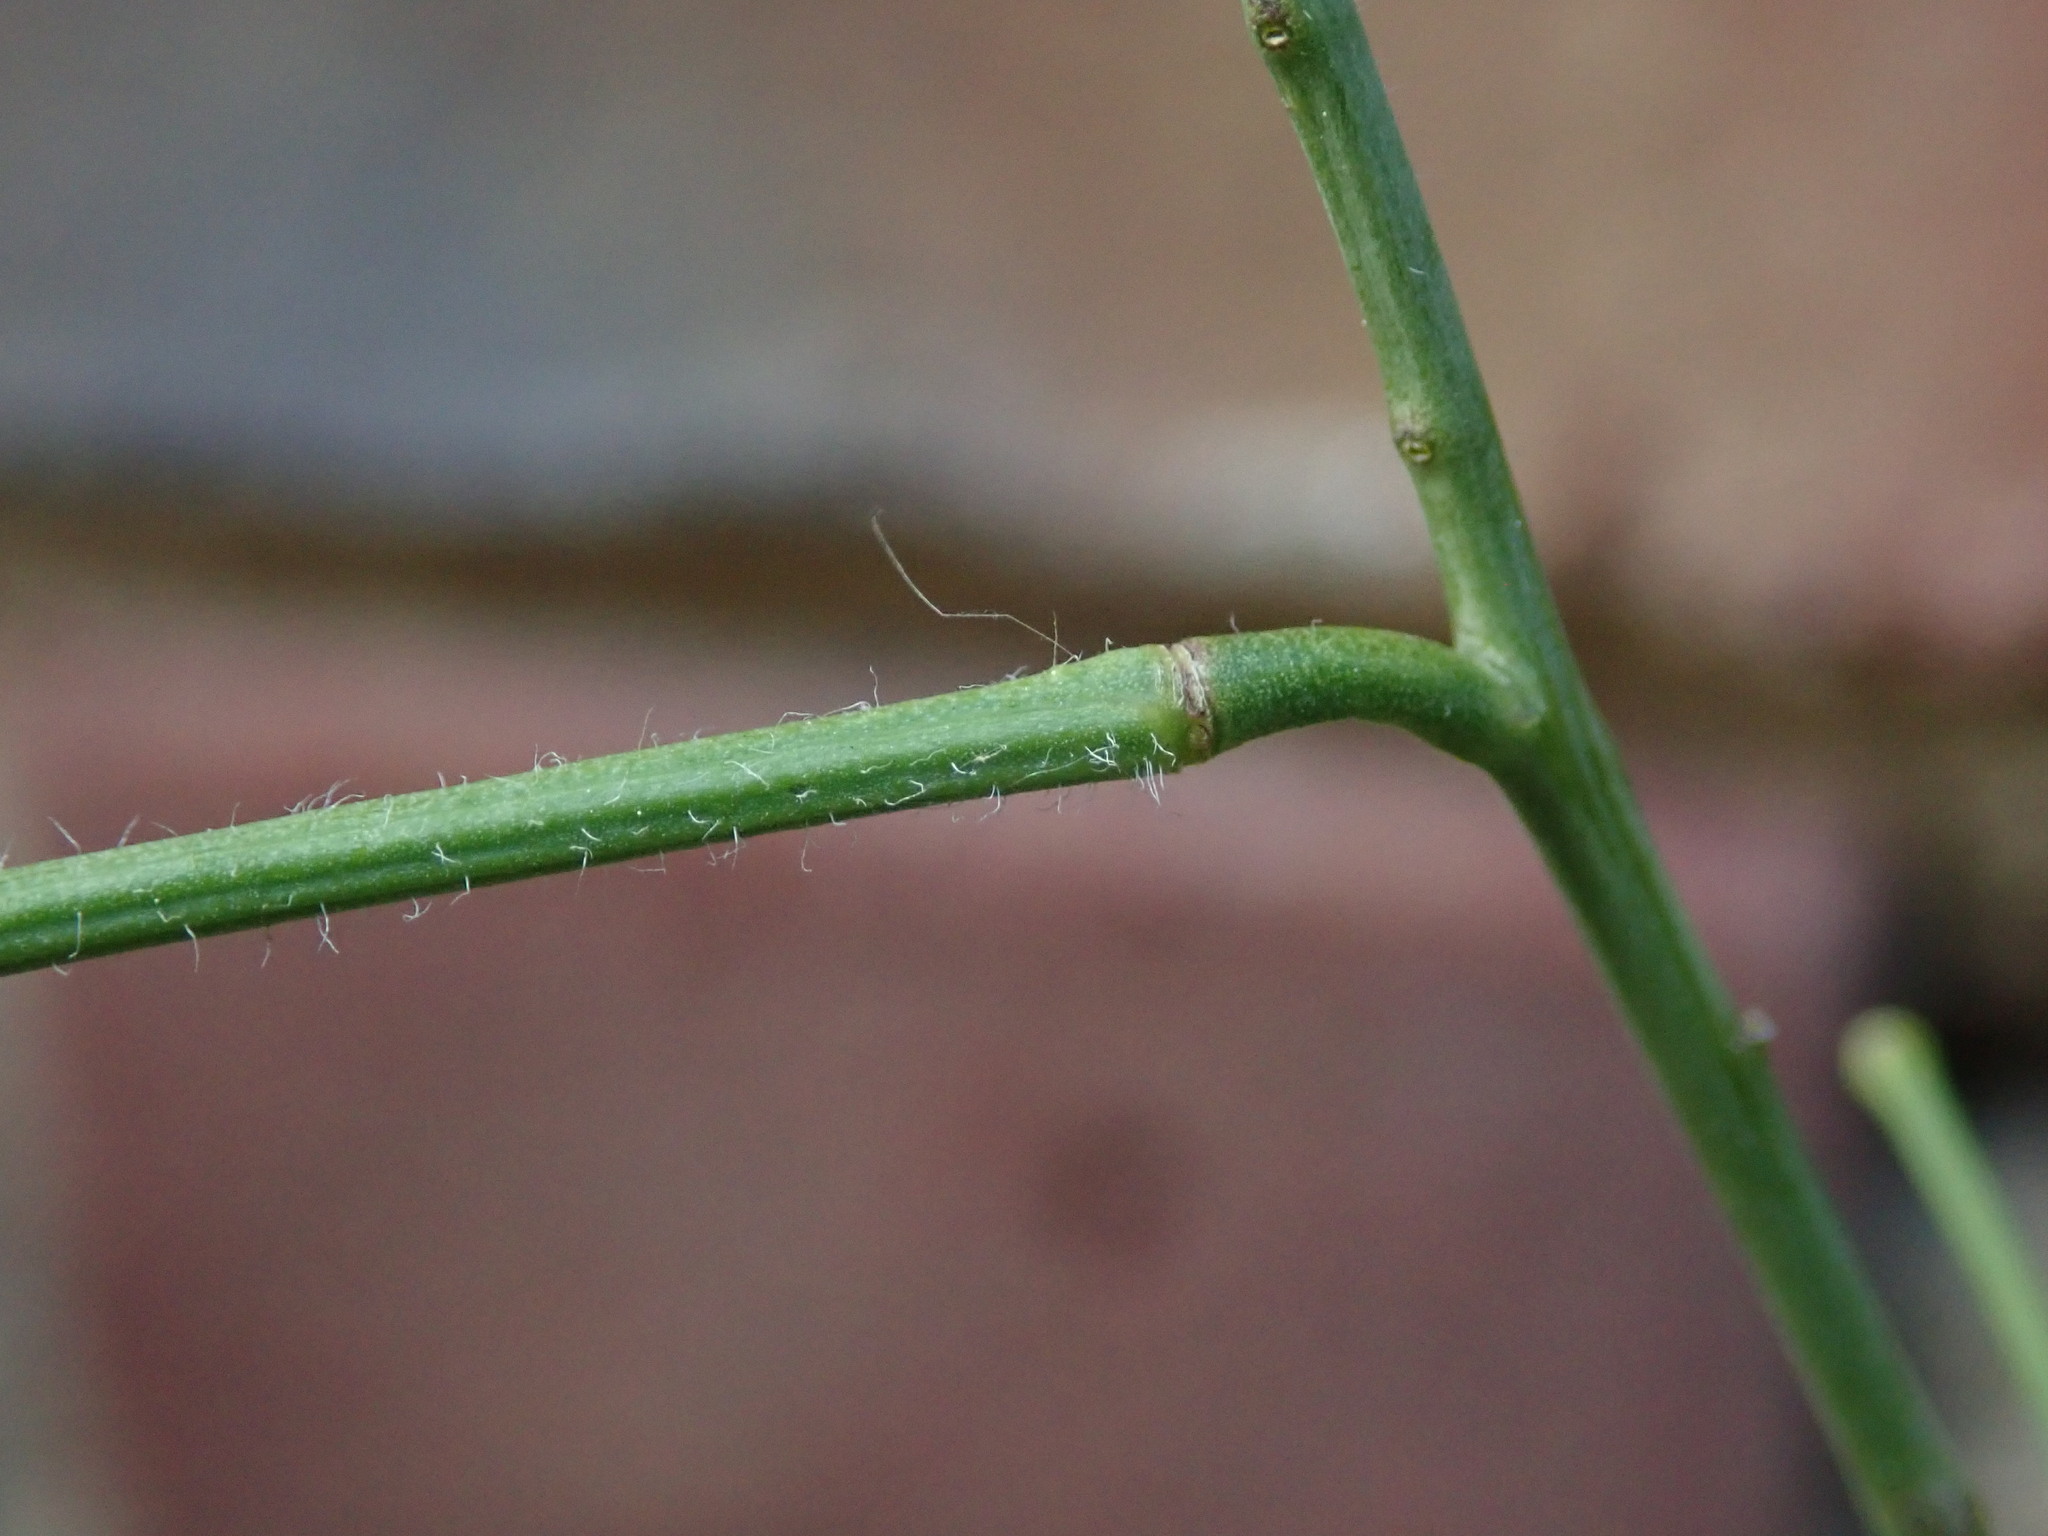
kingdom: Plantae
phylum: Tracheophyta
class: Magnoliopsida
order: Brassicales
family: Brassicaceae
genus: Sisymbrium
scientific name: Sisymbrium orientale
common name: Eastern rocket
